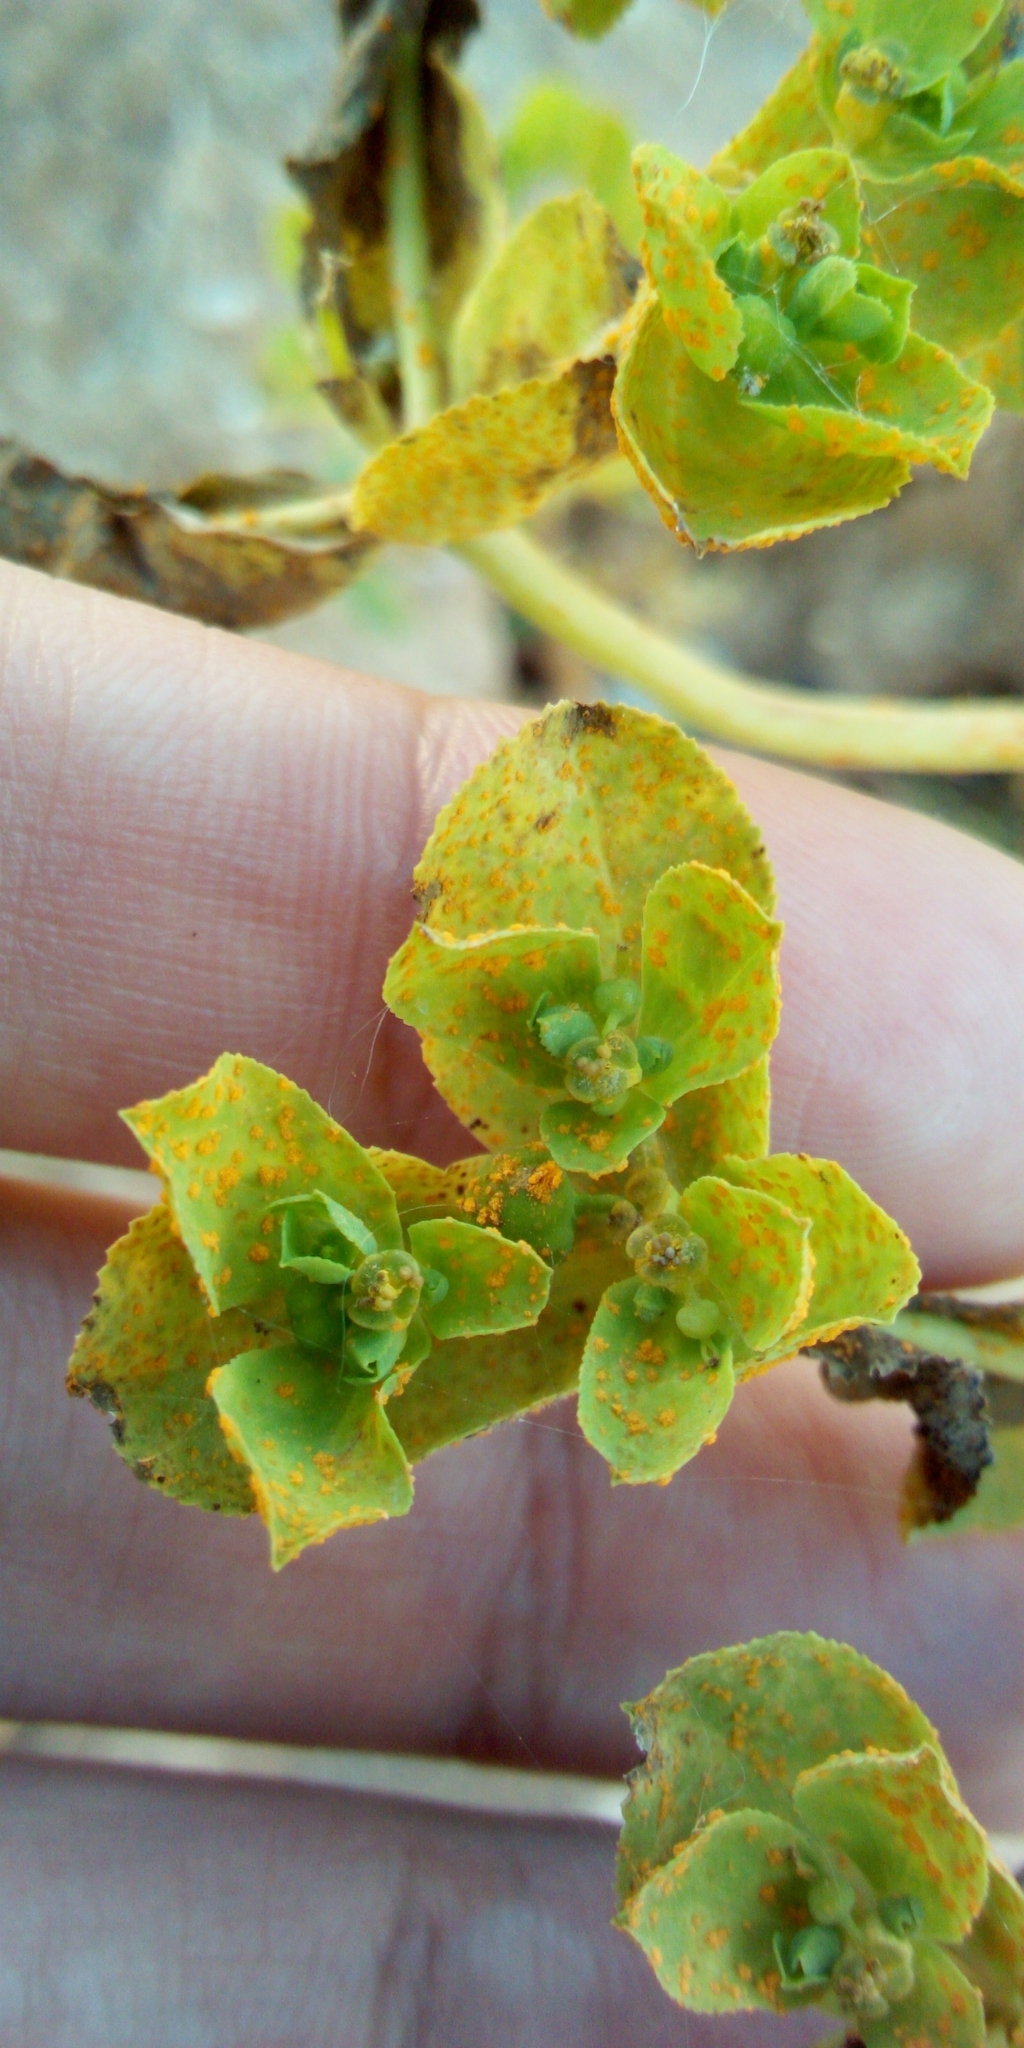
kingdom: Plantae
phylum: Tracheophyta
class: Magnoliopsida
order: Malpighiales
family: Euphorbiaceae
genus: Euphorbia
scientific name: Euphorbia helioscopia
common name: Sun spurge
